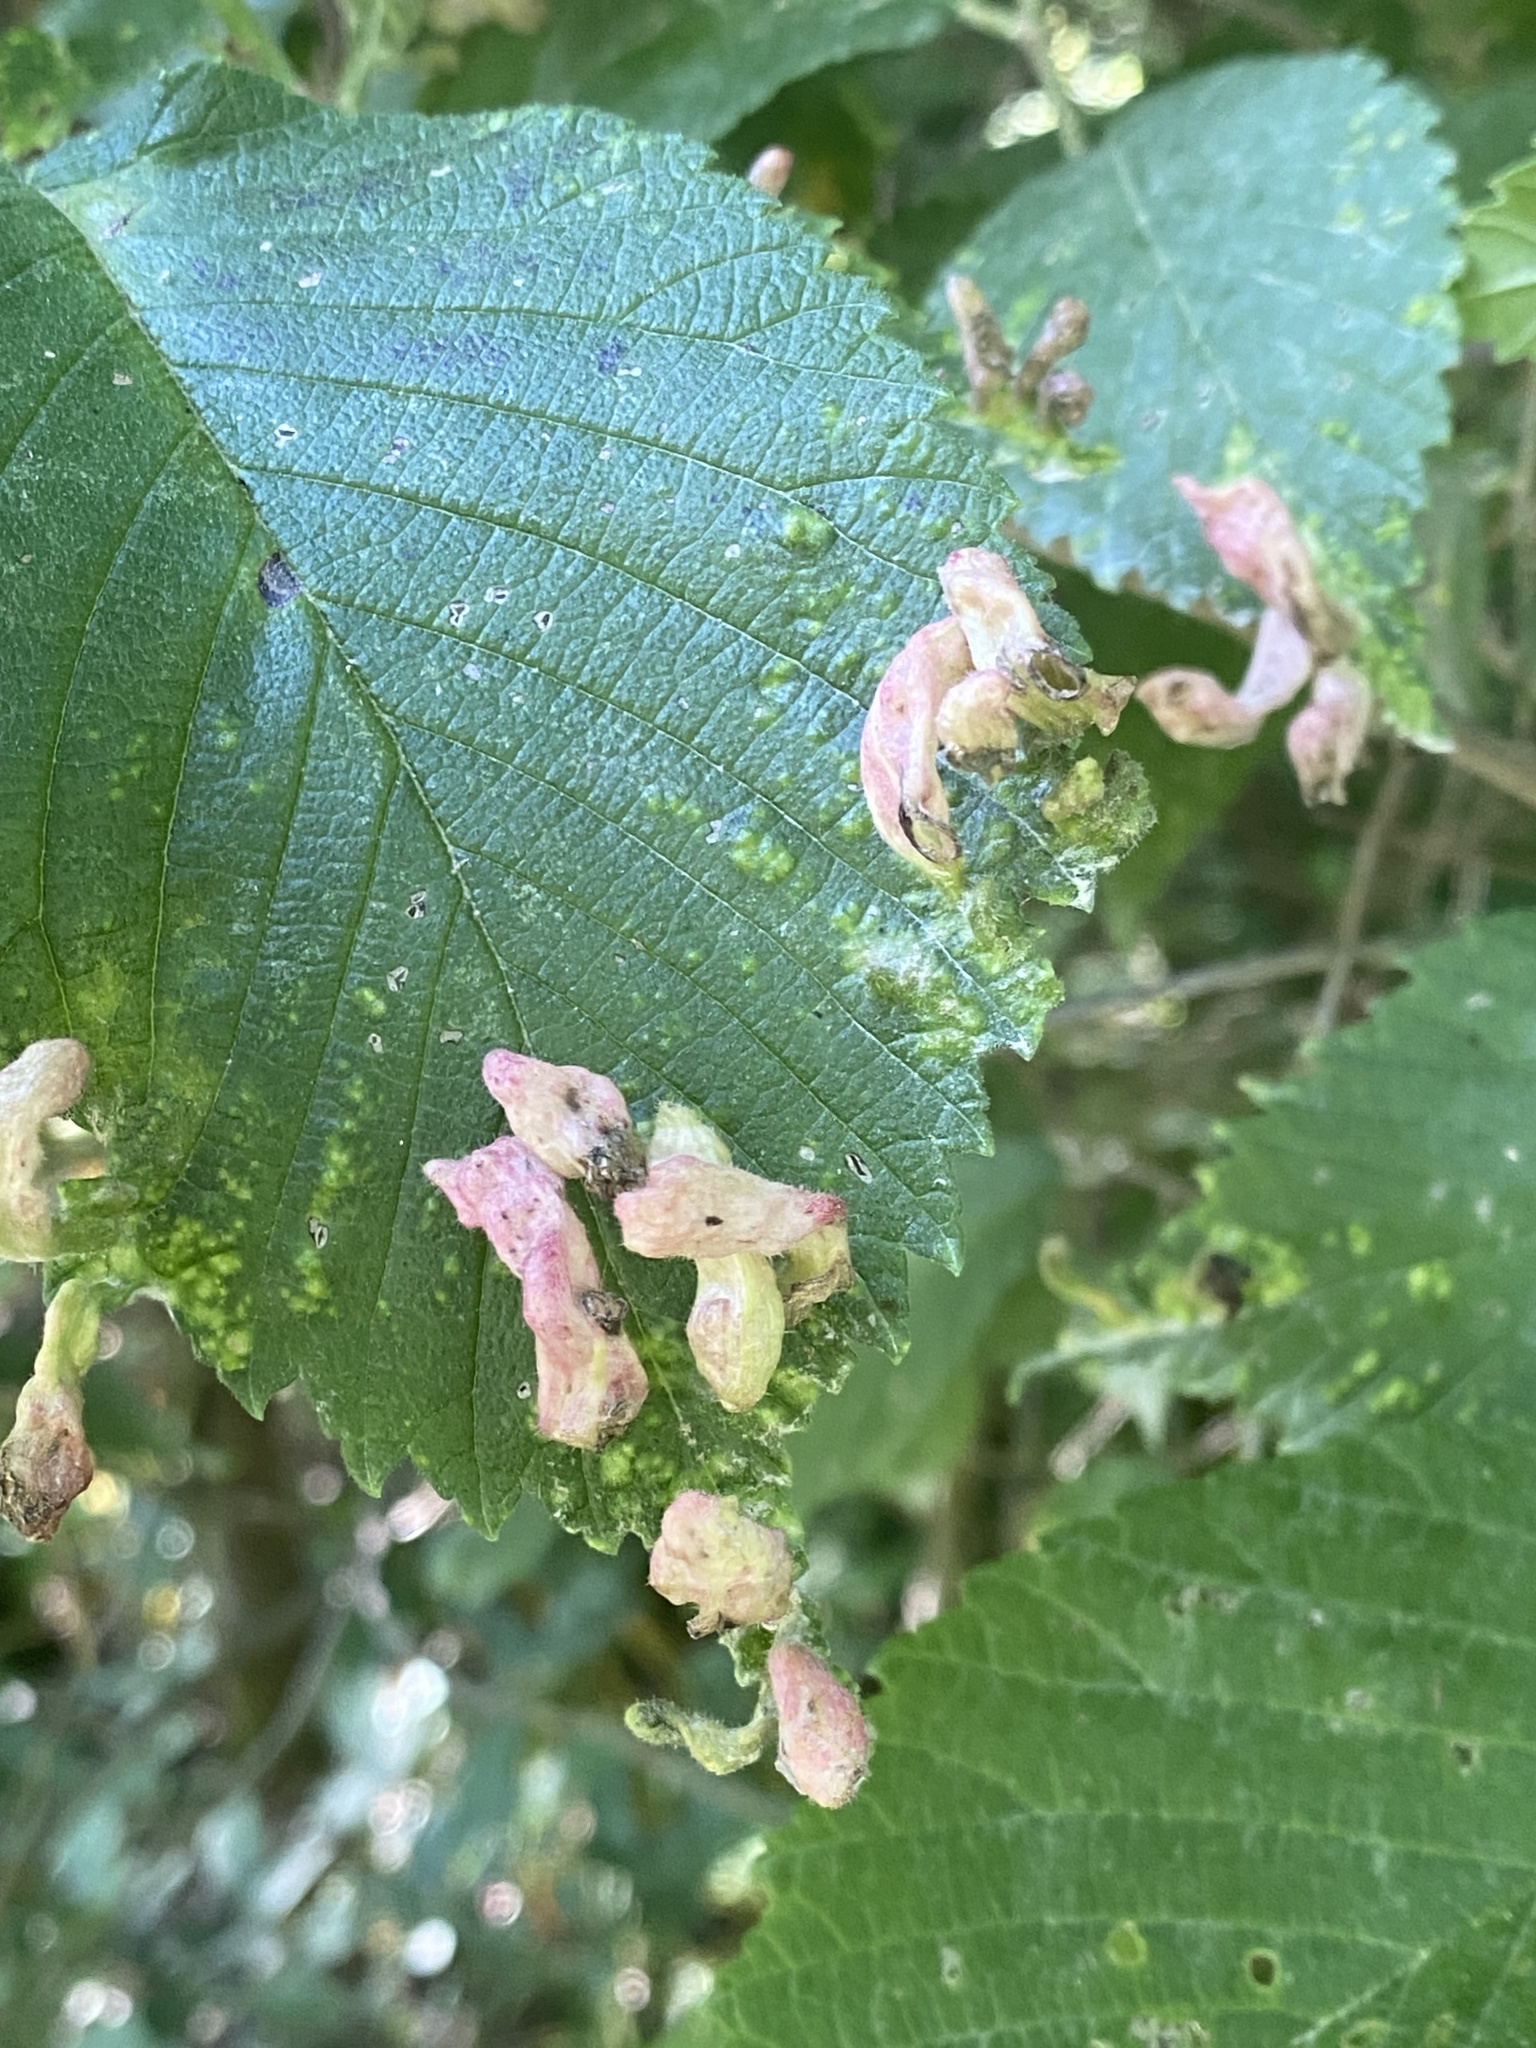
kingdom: Animalia
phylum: Arthropoda
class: Insecta
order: Hemiptera
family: Aphididae
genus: Tetraneura
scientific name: Tetraneura nigriabdominalis
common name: Aphid
